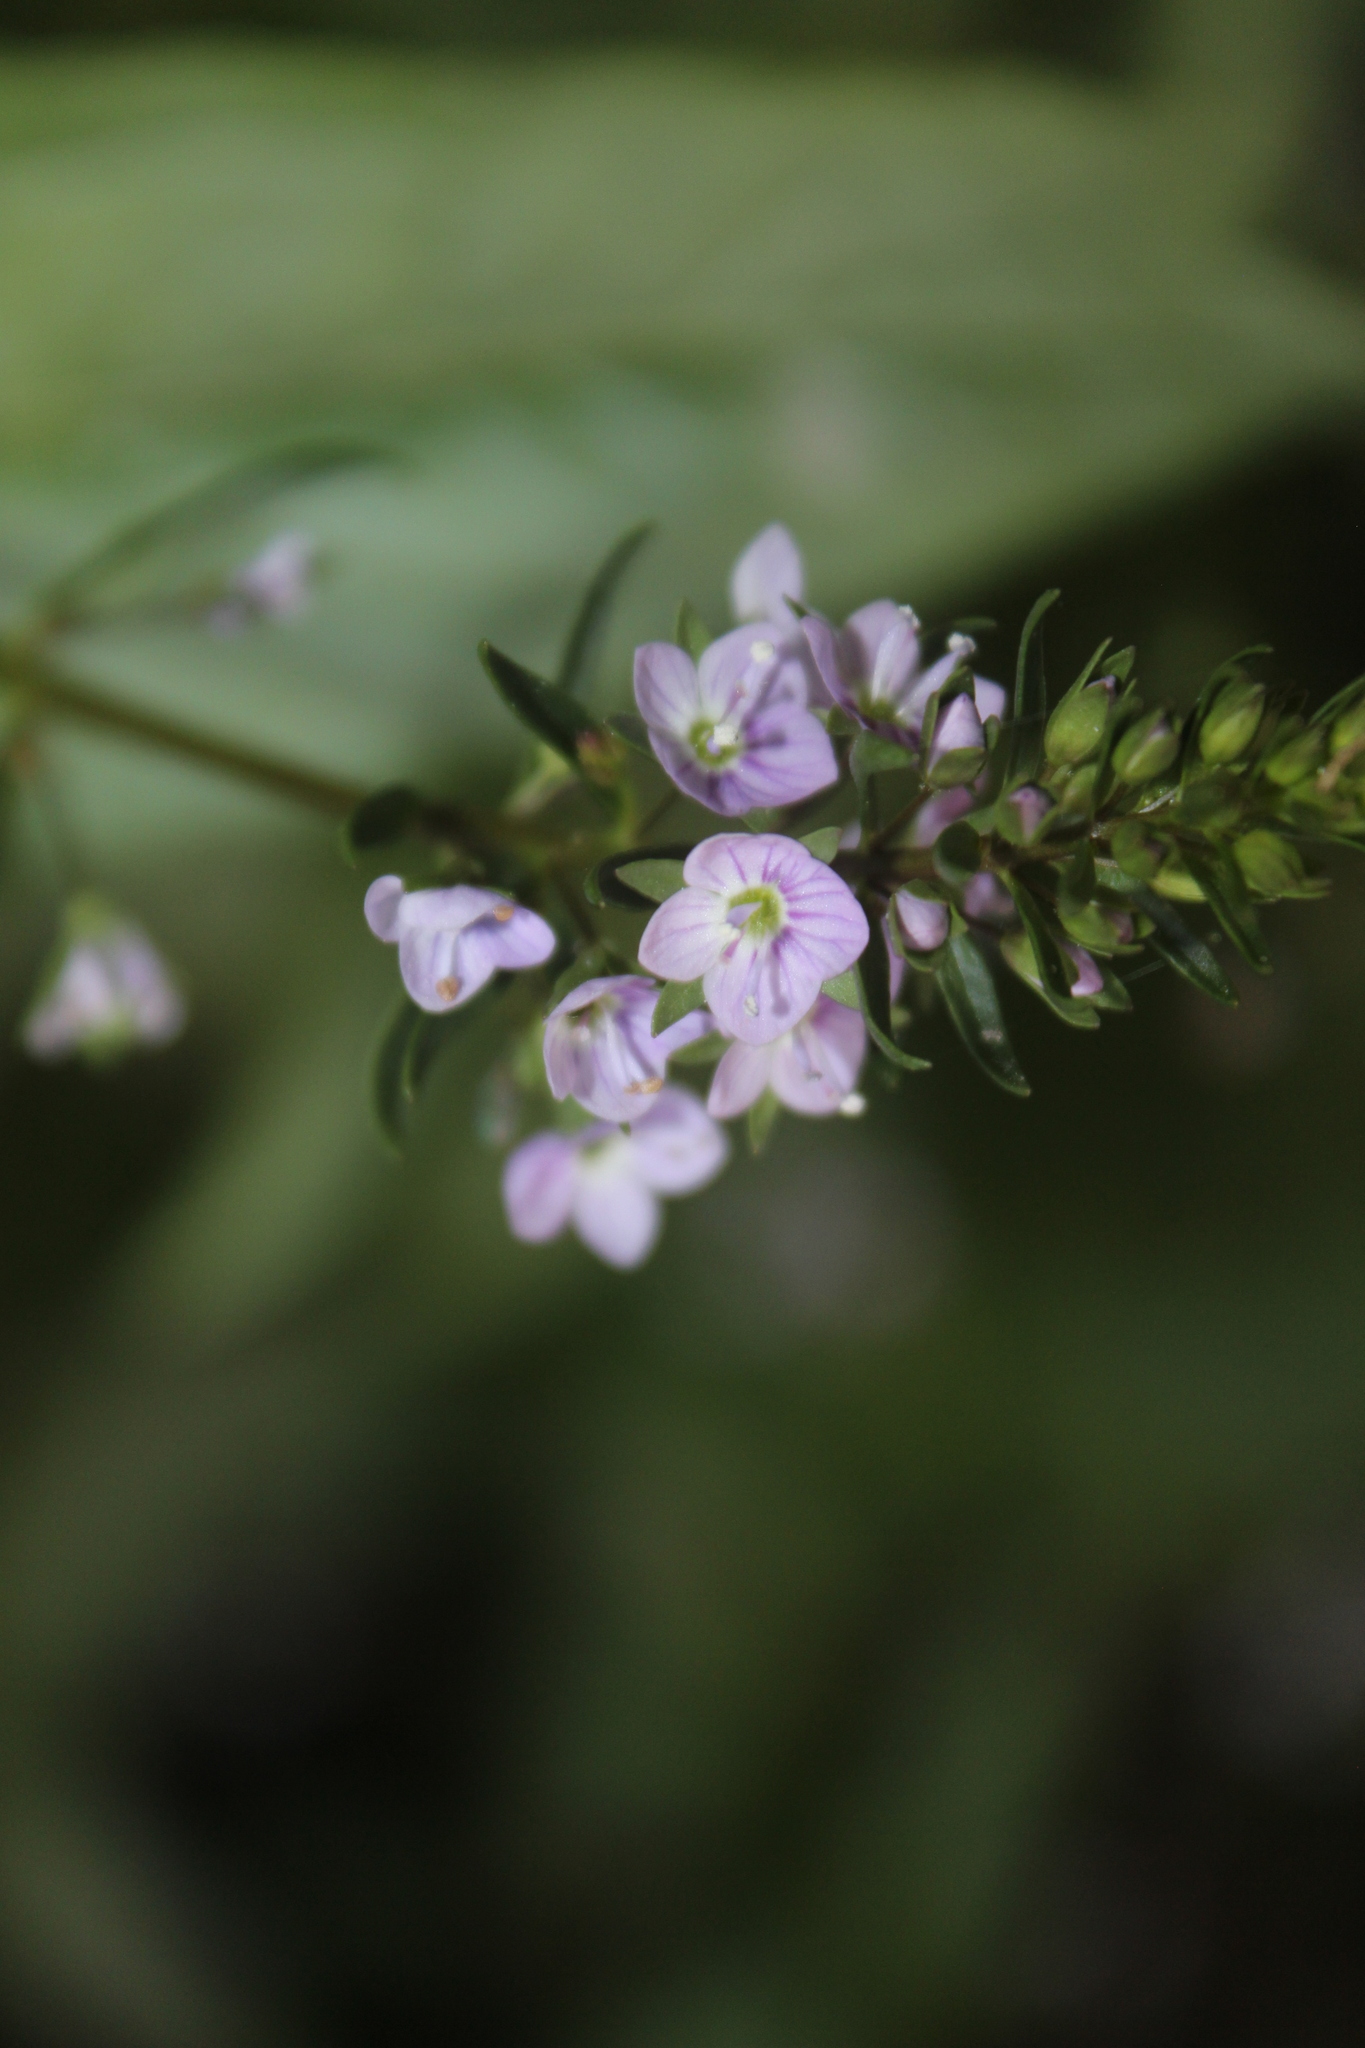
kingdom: Plantae
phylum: Tracheophyta
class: Magnoliopsida
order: Lamiales
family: Plantaginaceae
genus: Veronica
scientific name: Veronica anagallis-aquatica
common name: Water speedwell
